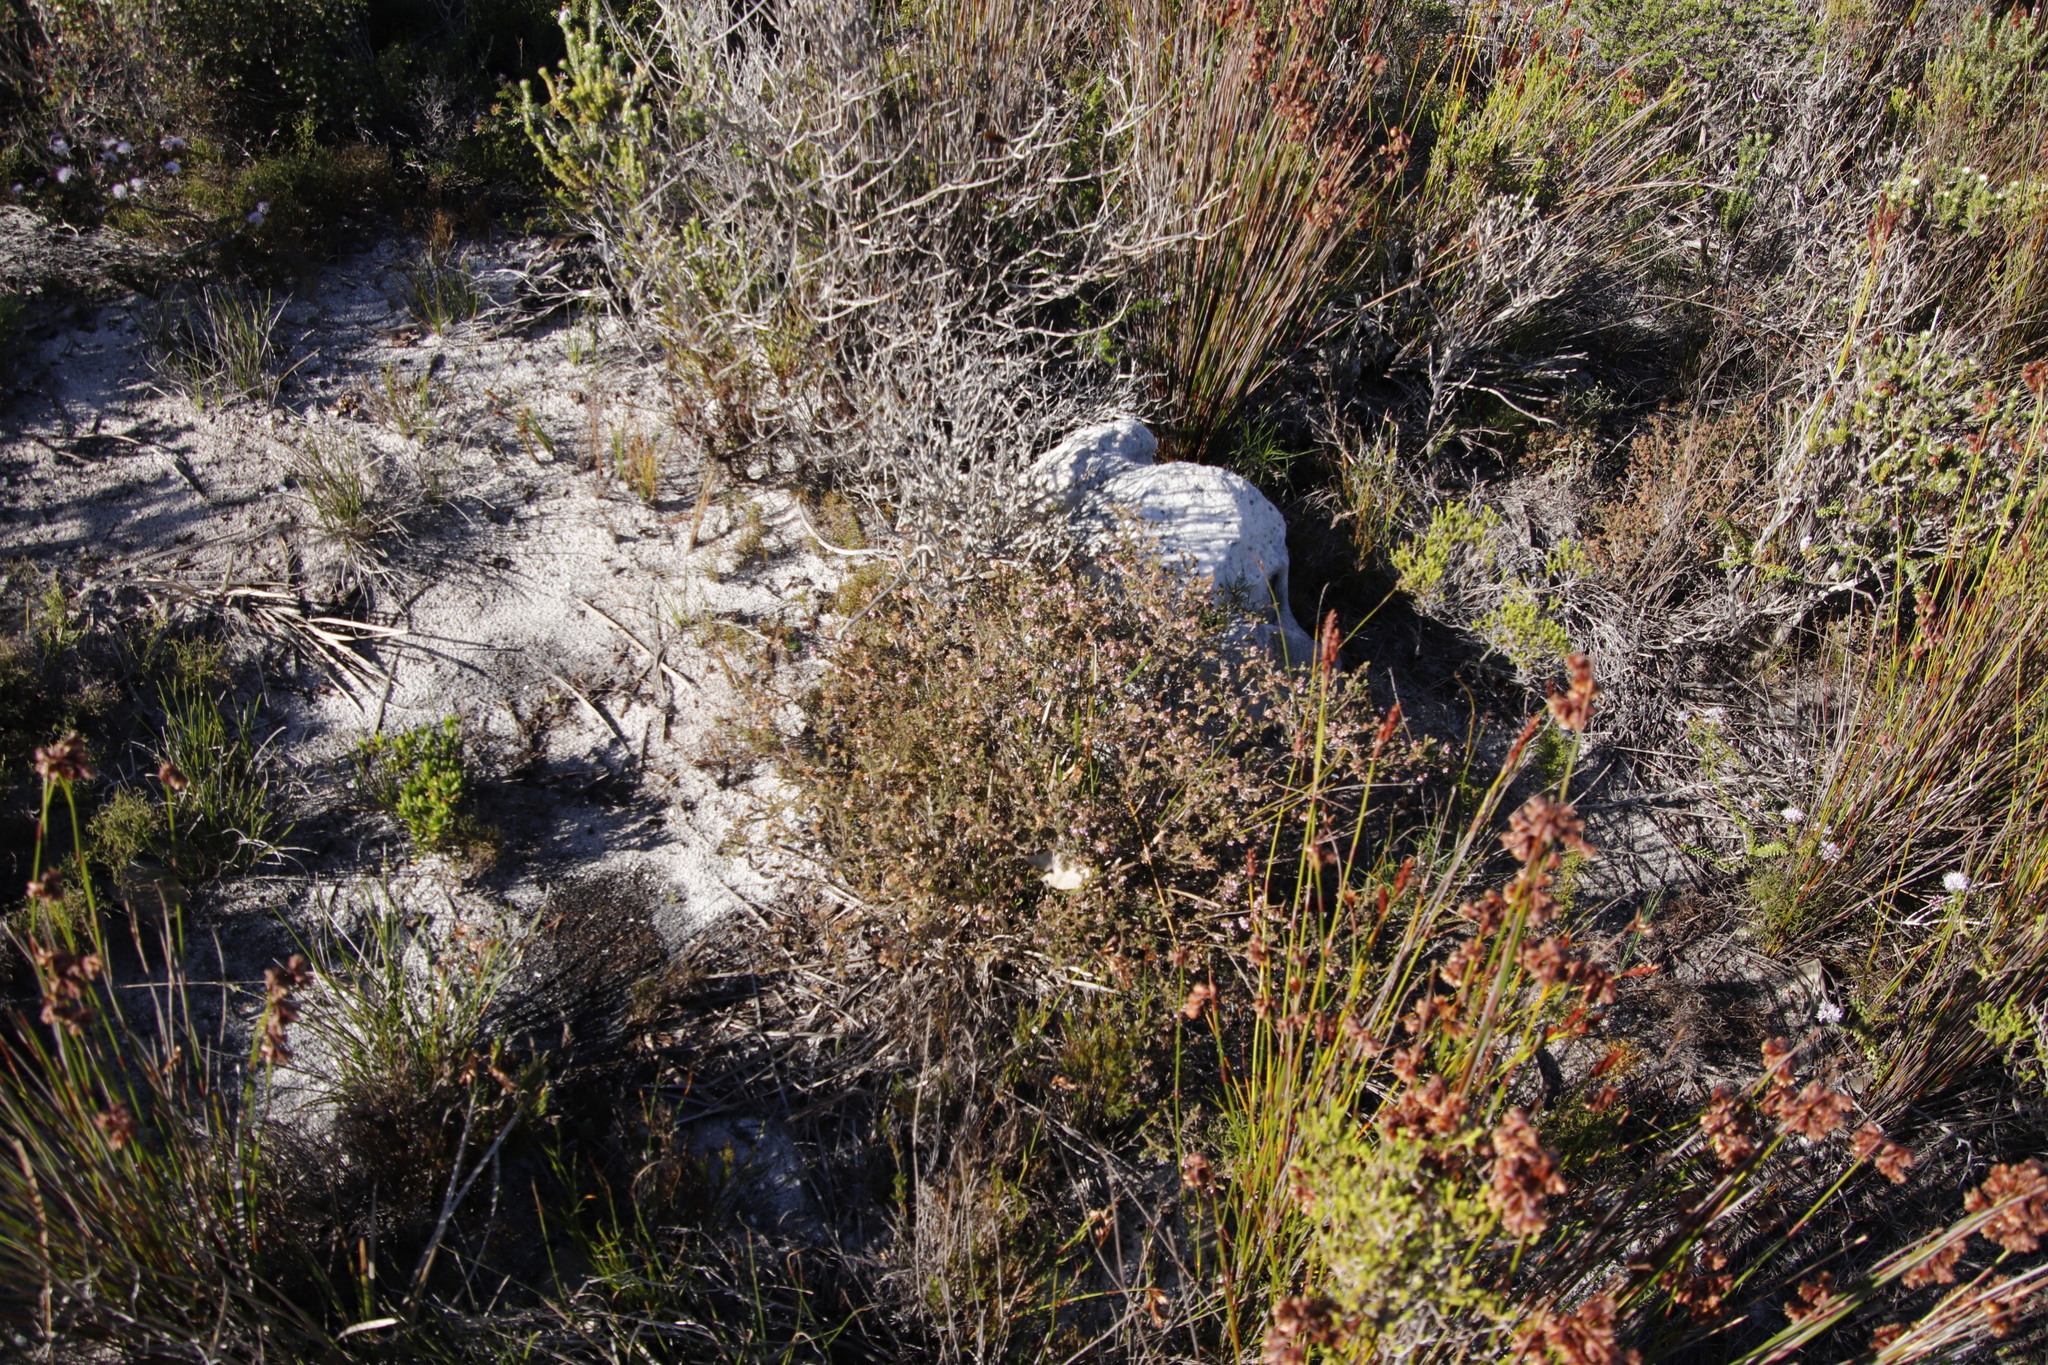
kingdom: Plantae
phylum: Tracheophyta
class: Magnoliopsida
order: Ericales
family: Ericaceae
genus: Erica
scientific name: Erica glabella
